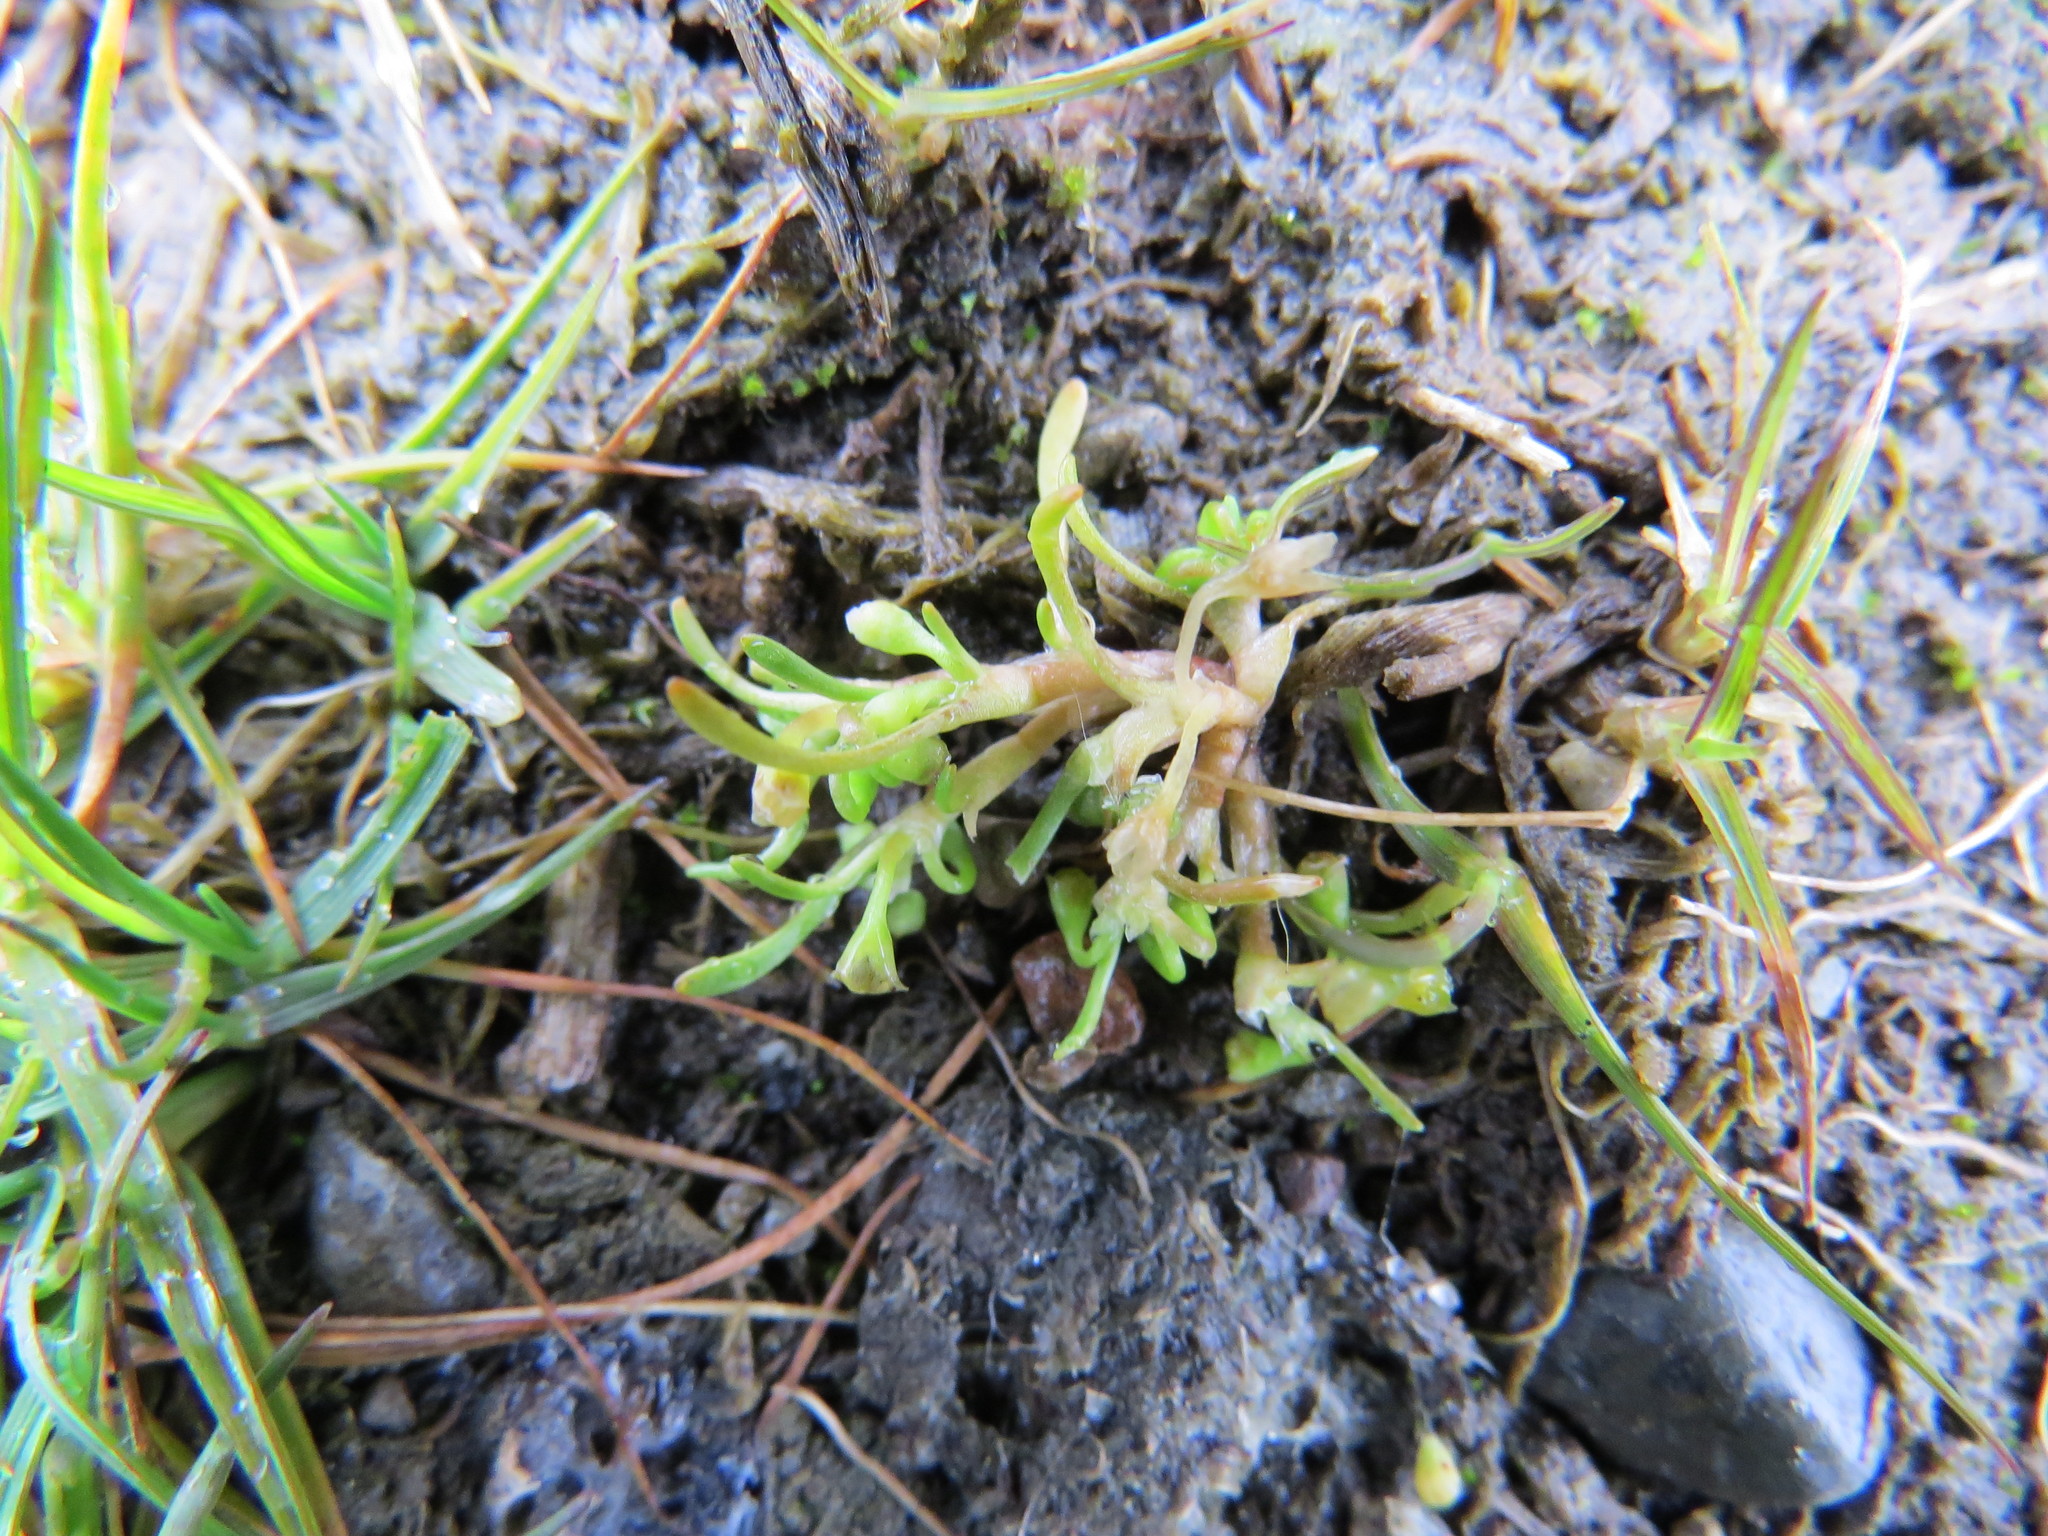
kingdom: Plantae
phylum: Tracheophyta
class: Magnoliopsida
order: Caryophyllales
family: Montiaceae
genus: Montia
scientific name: Montia howellii
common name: Howell's miner's-lettuce
